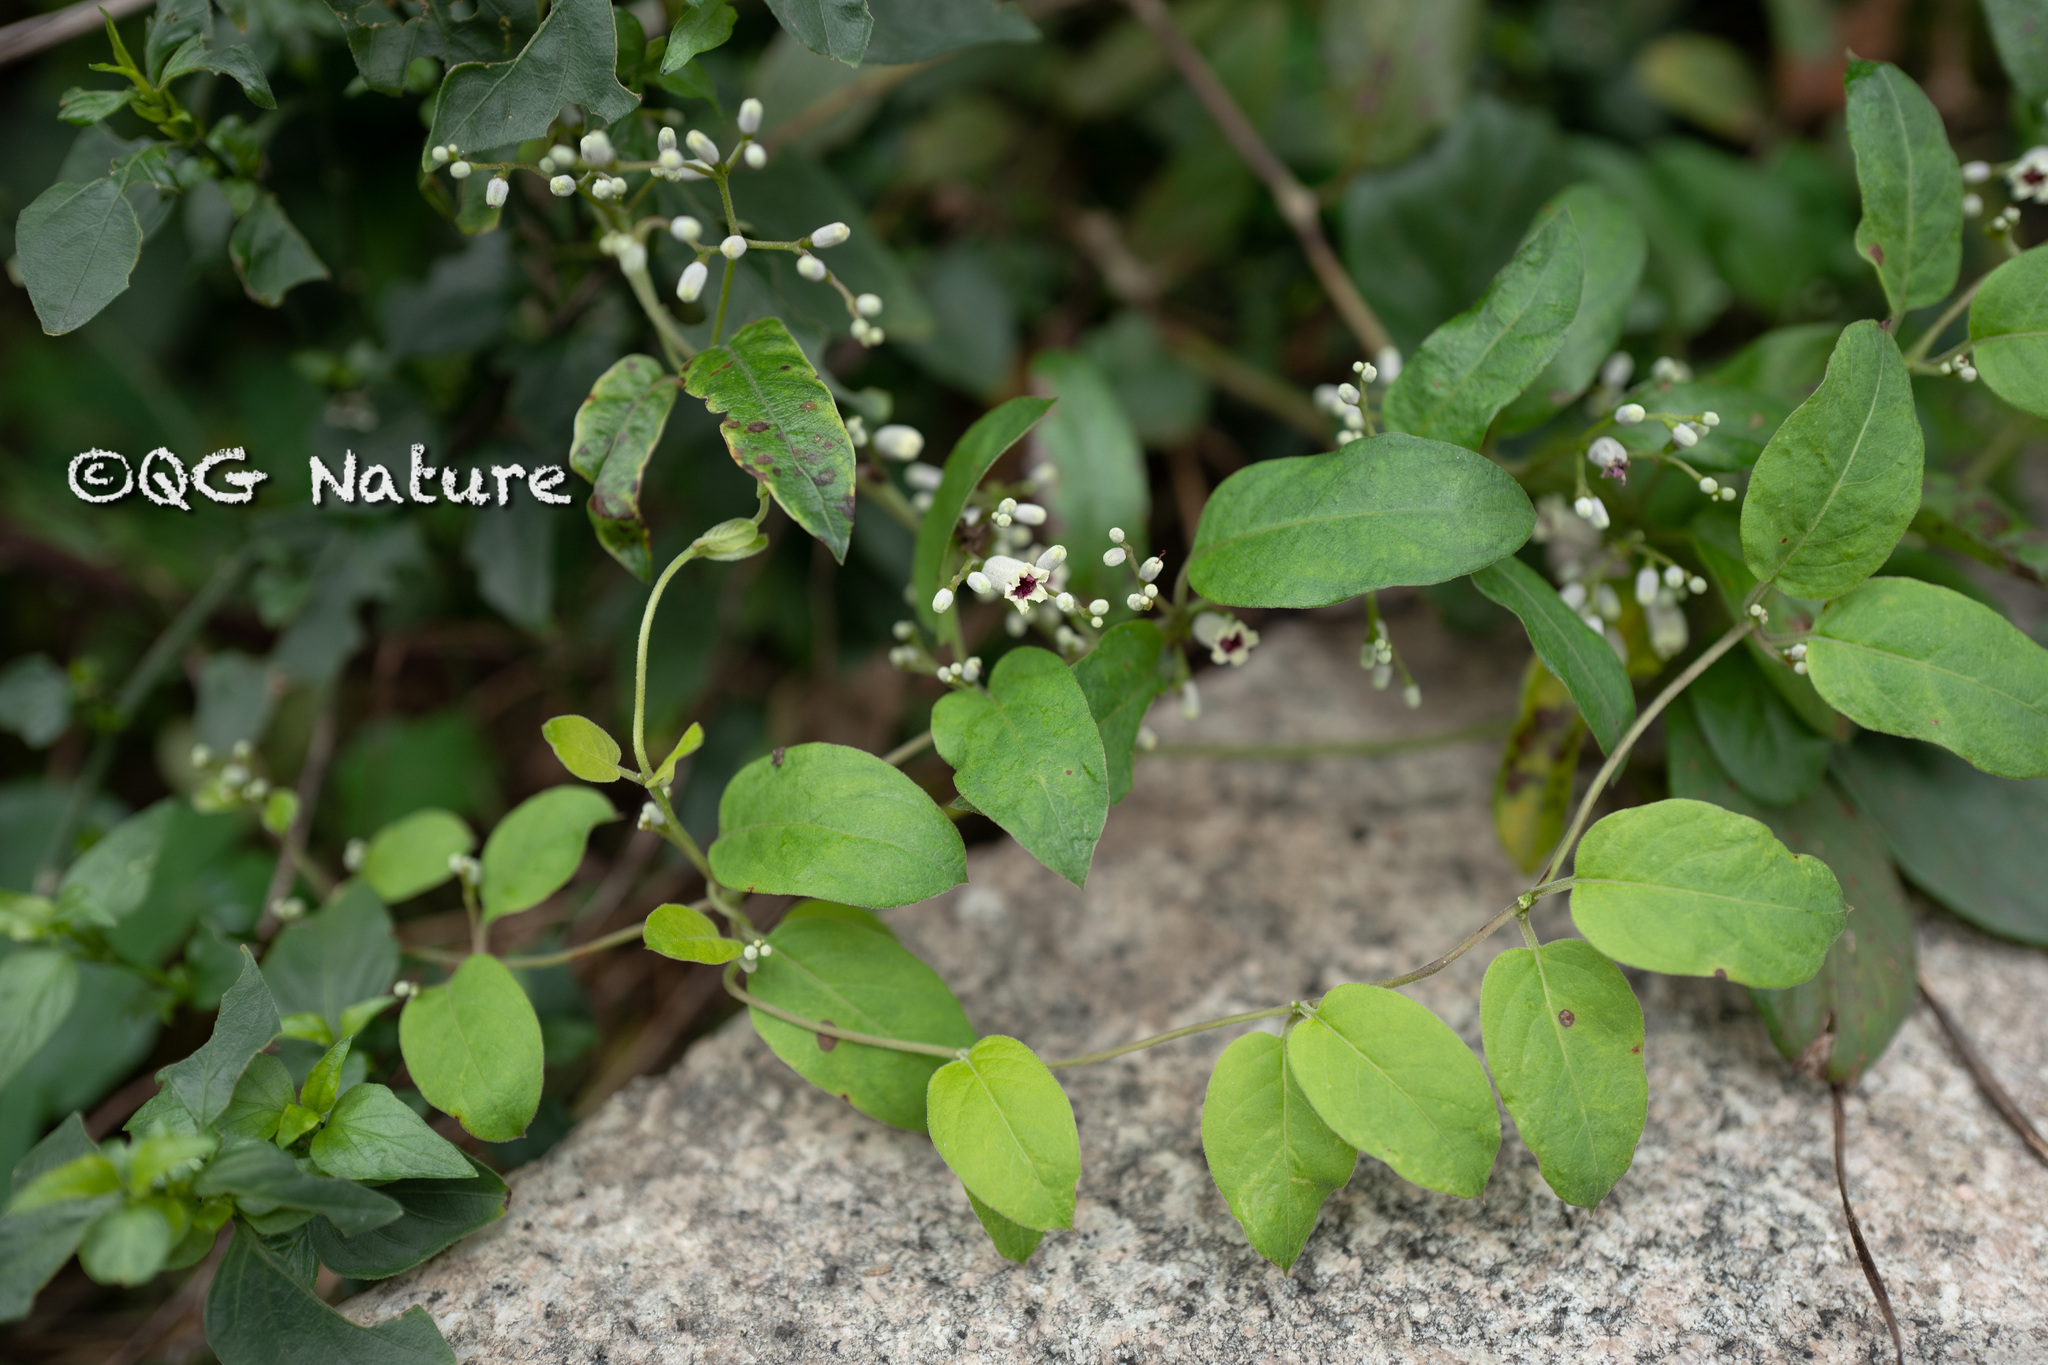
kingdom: Plantae
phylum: Tracheophyta
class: Magnoliopsida
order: Gentianales
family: Rubiaceae
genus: Paederia
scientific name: Paederia foetida
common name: Stinkvine
